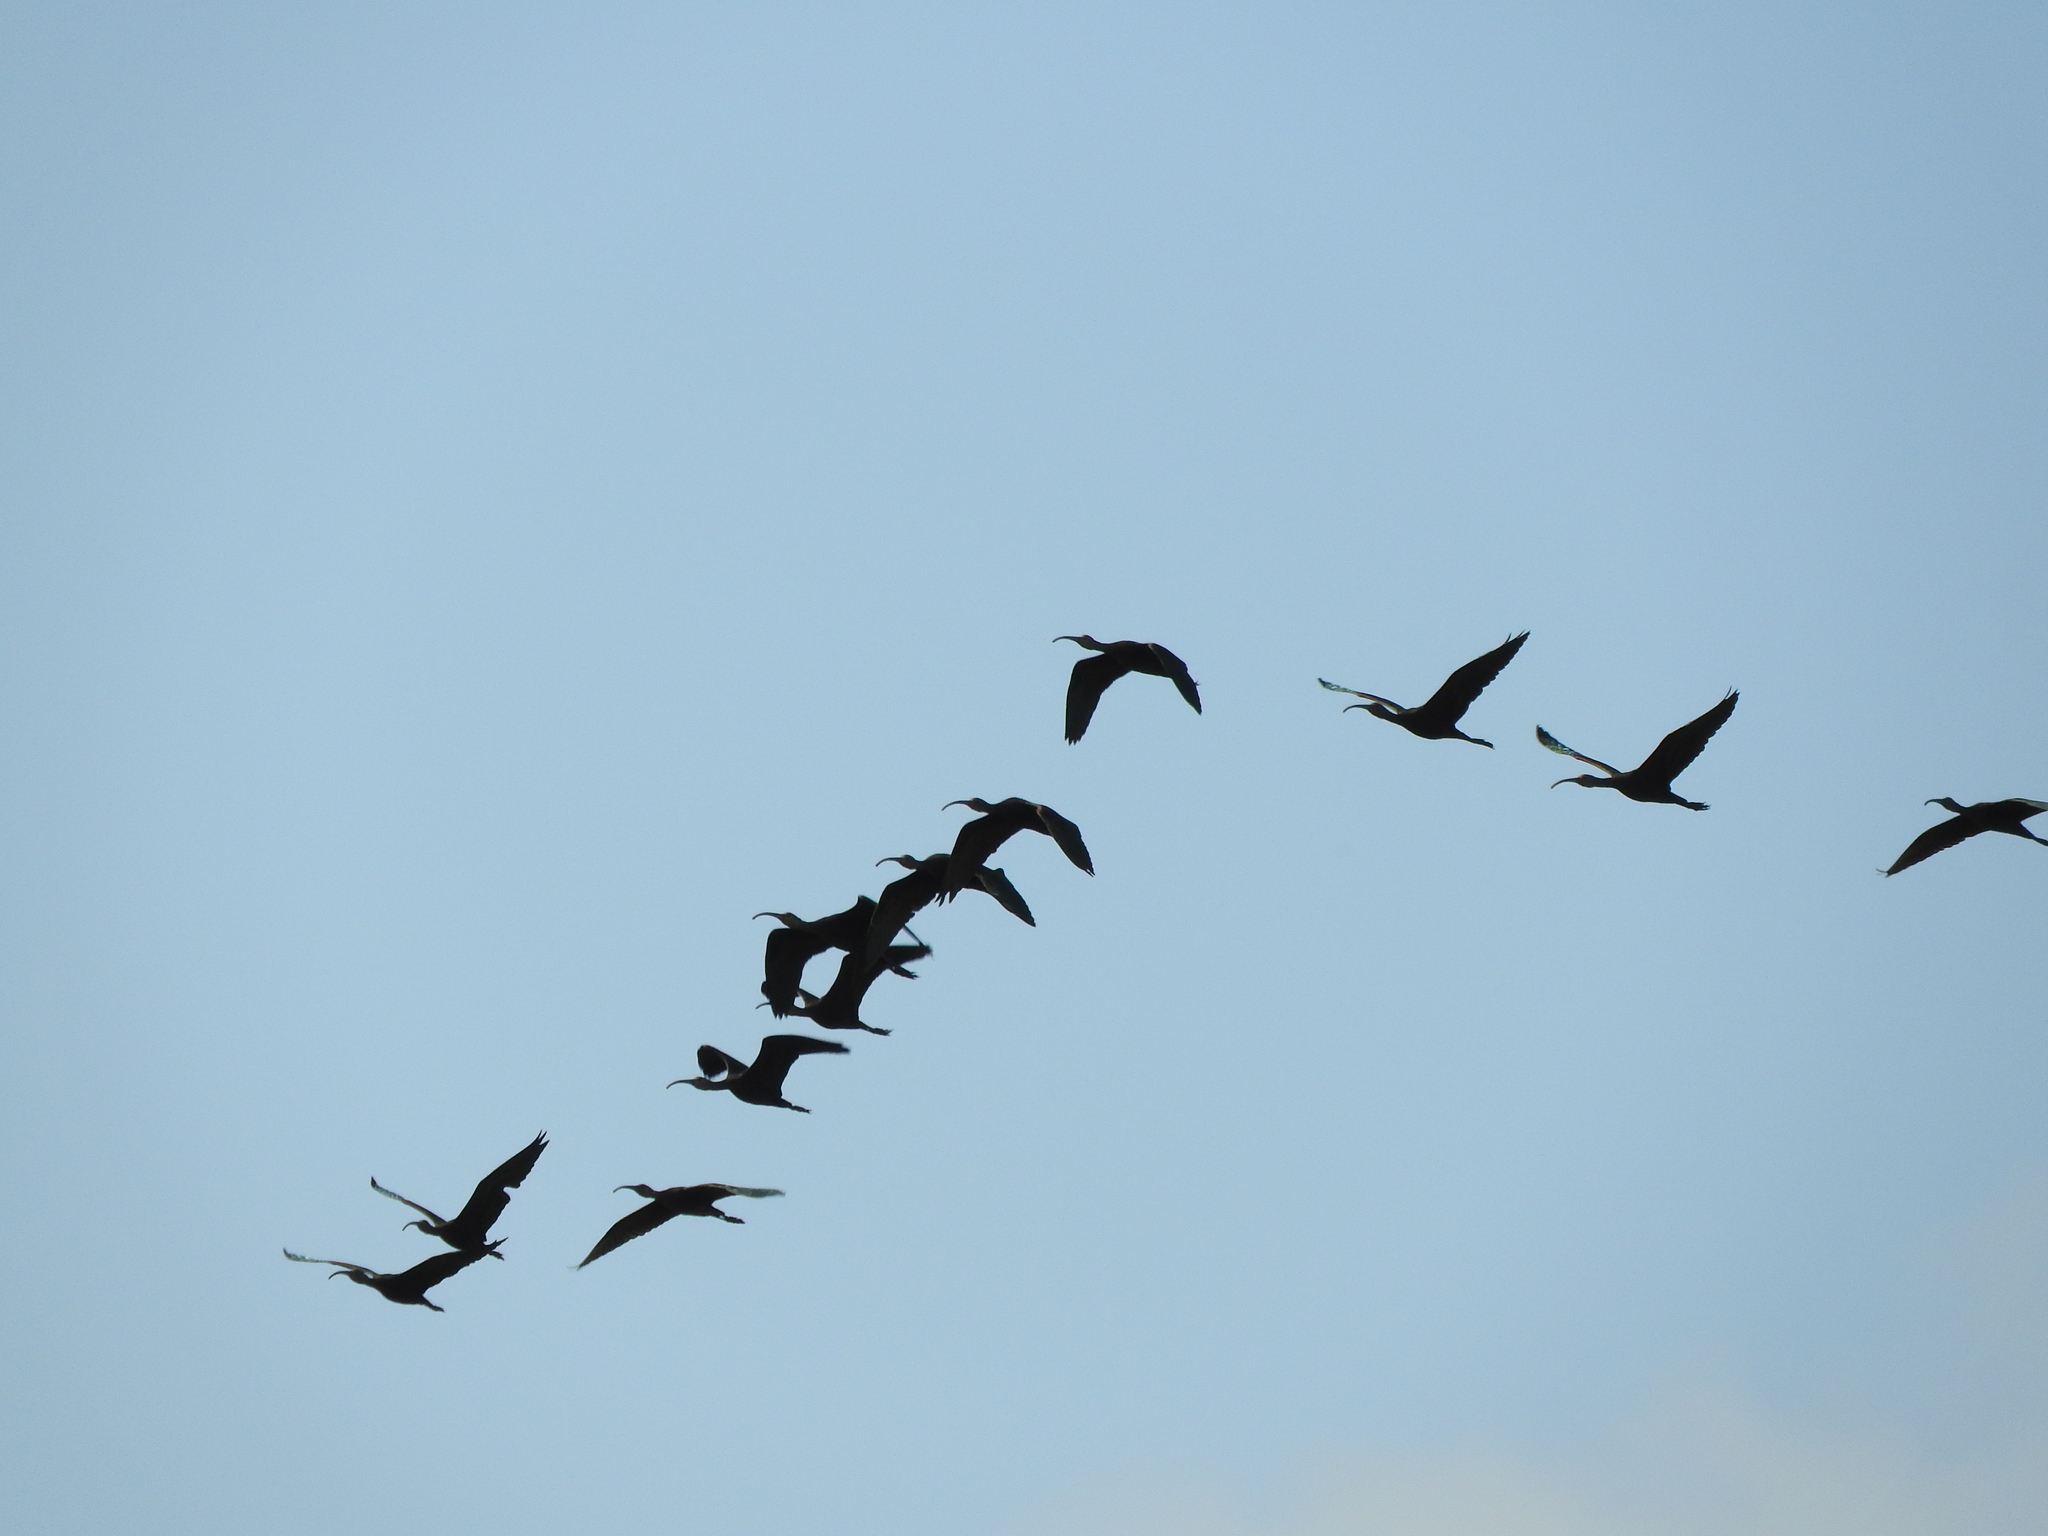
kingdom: Animalia
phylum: Chordata
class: Aves
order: Pelecaniformes
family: Threskiornithidae
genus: Plegadis
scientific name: Plegadis chihi
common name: White-faced ibis
